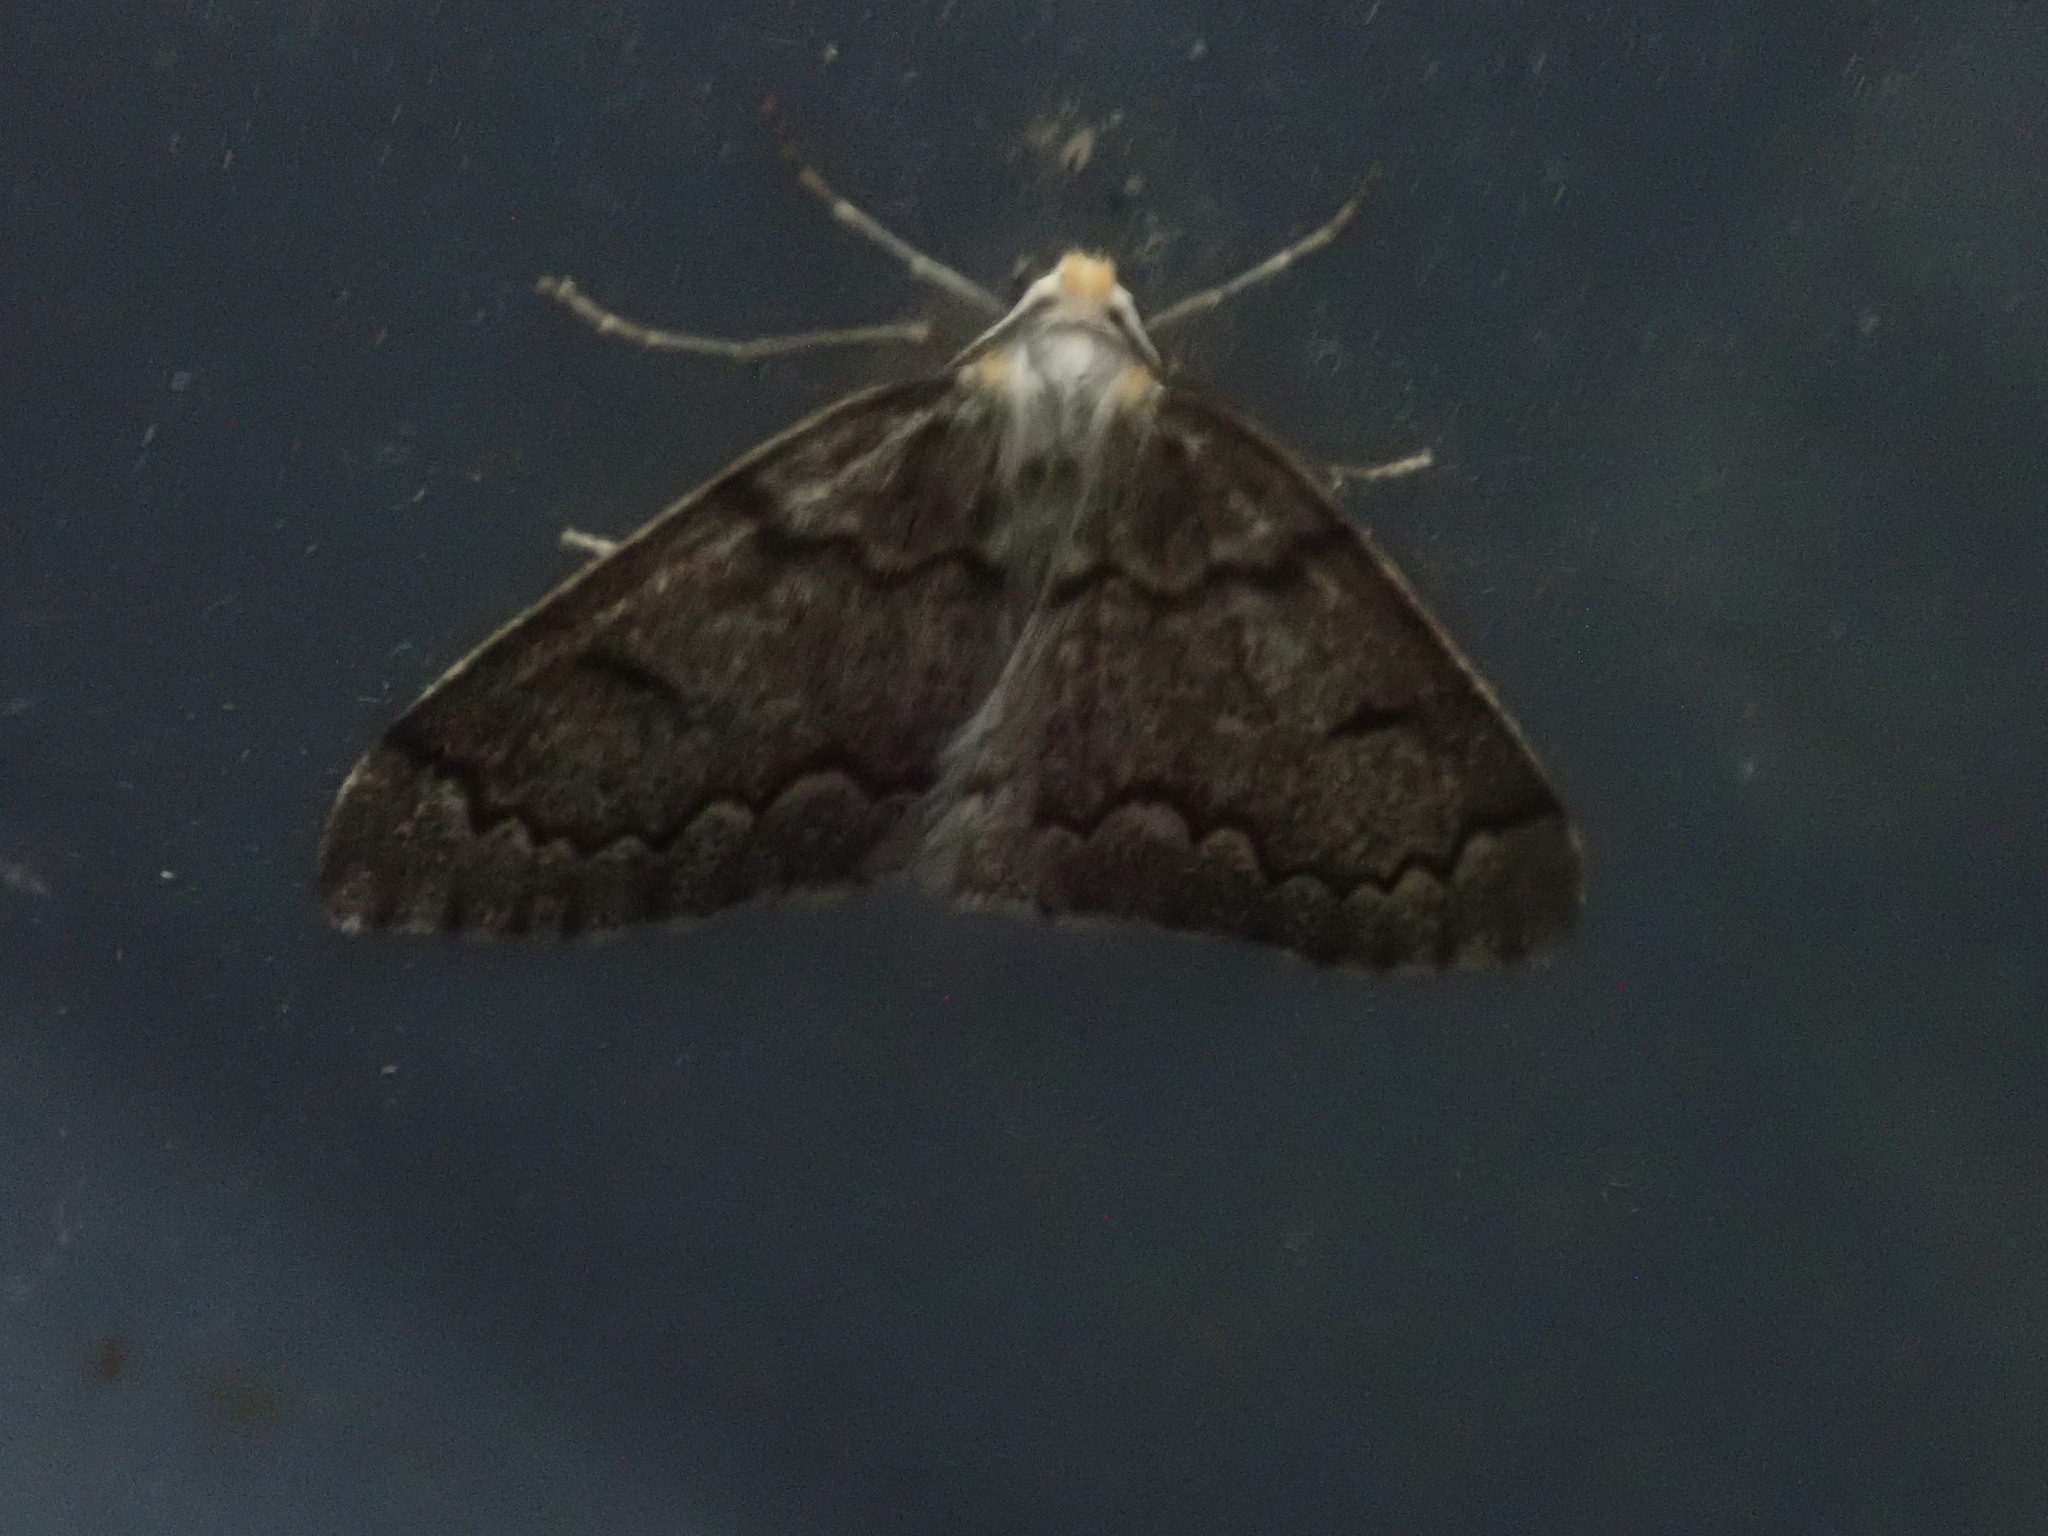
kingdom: Animalia
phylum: Arthropoda
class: Insecta
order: Lepidoptera
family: Geometridae
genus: Nepytia
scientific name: Nepytia canosaria
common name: False hemlock looper
